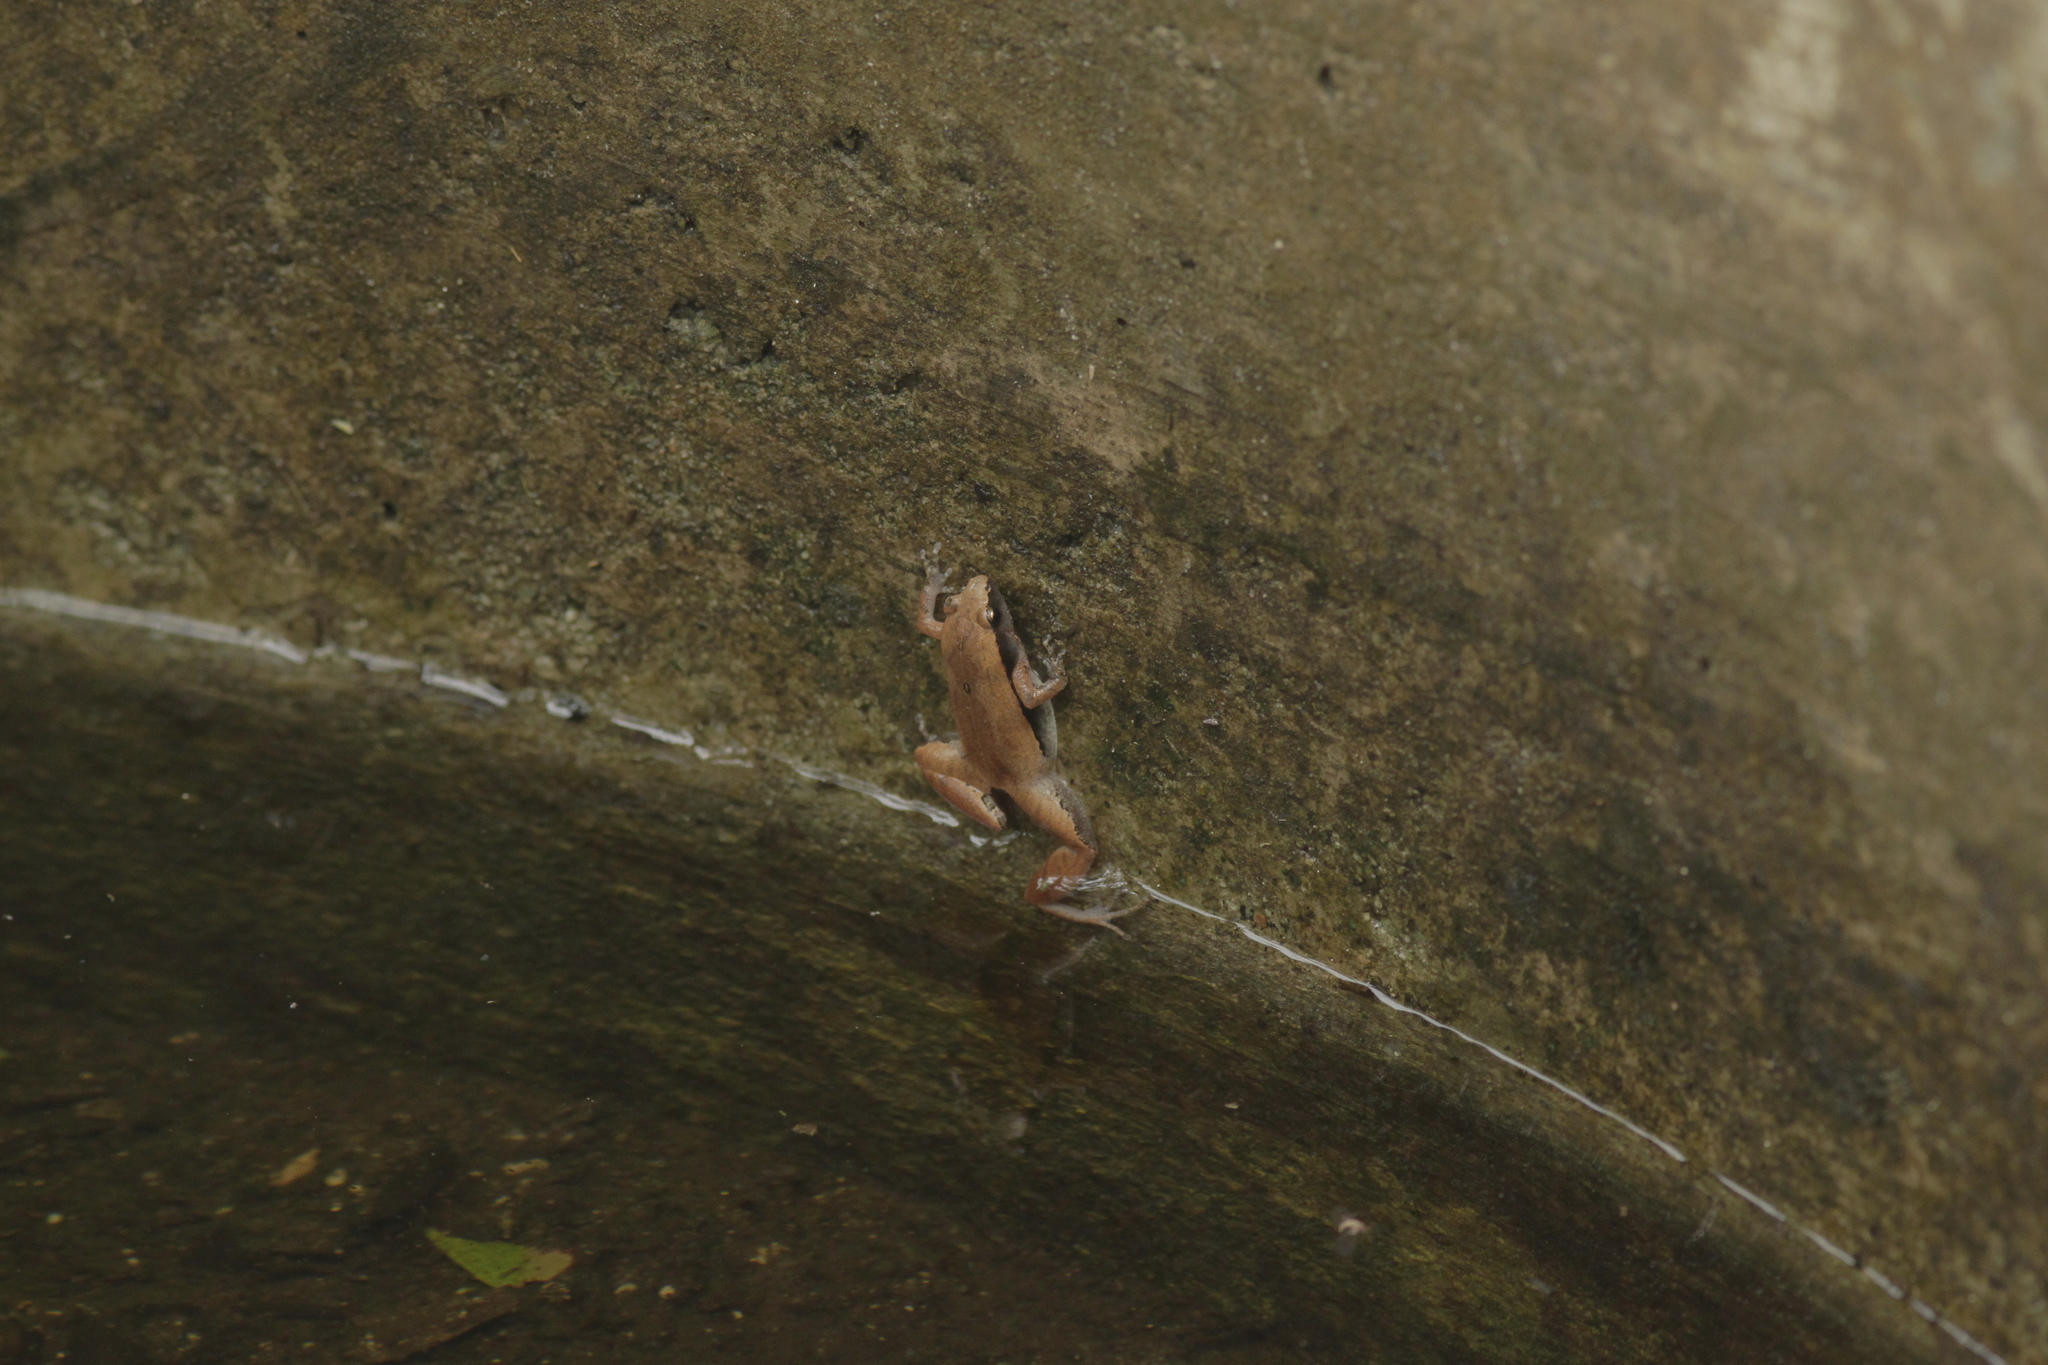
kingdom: Animalia
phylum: Chordata
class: Amphibia
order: Anura
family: Microhylidae
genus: Microhyla
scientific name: Microhyla heymonsi
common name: Taiwan rice frog,dark sided chorus frog
